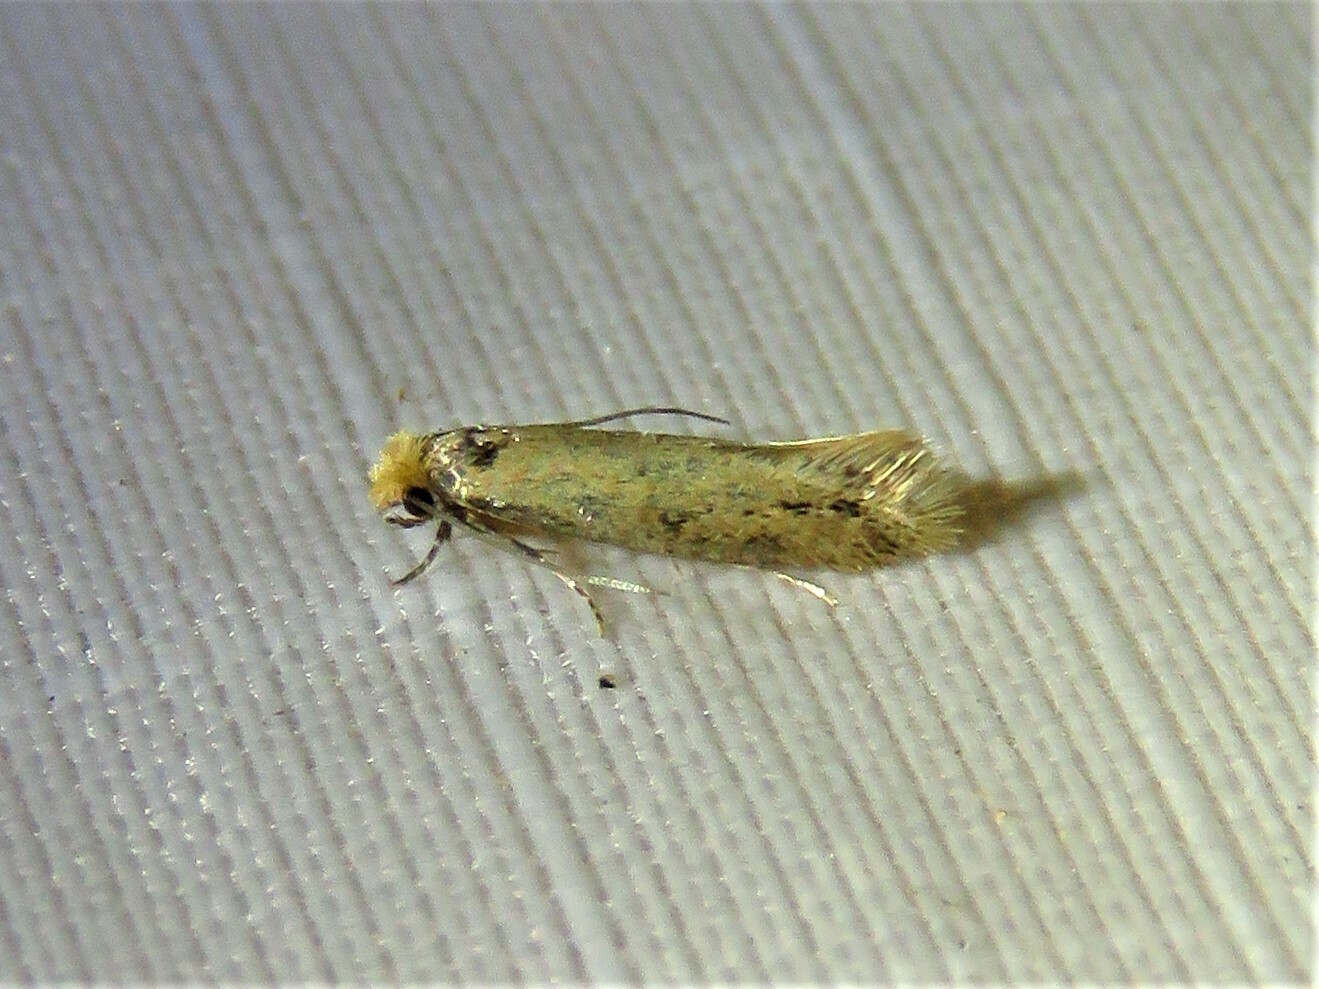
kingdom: Animalia
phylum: Arthropoda
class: Insecta
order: Lepidoptera
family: Meessiidae
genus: Homostinea
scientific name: Homostinea curviliniella
